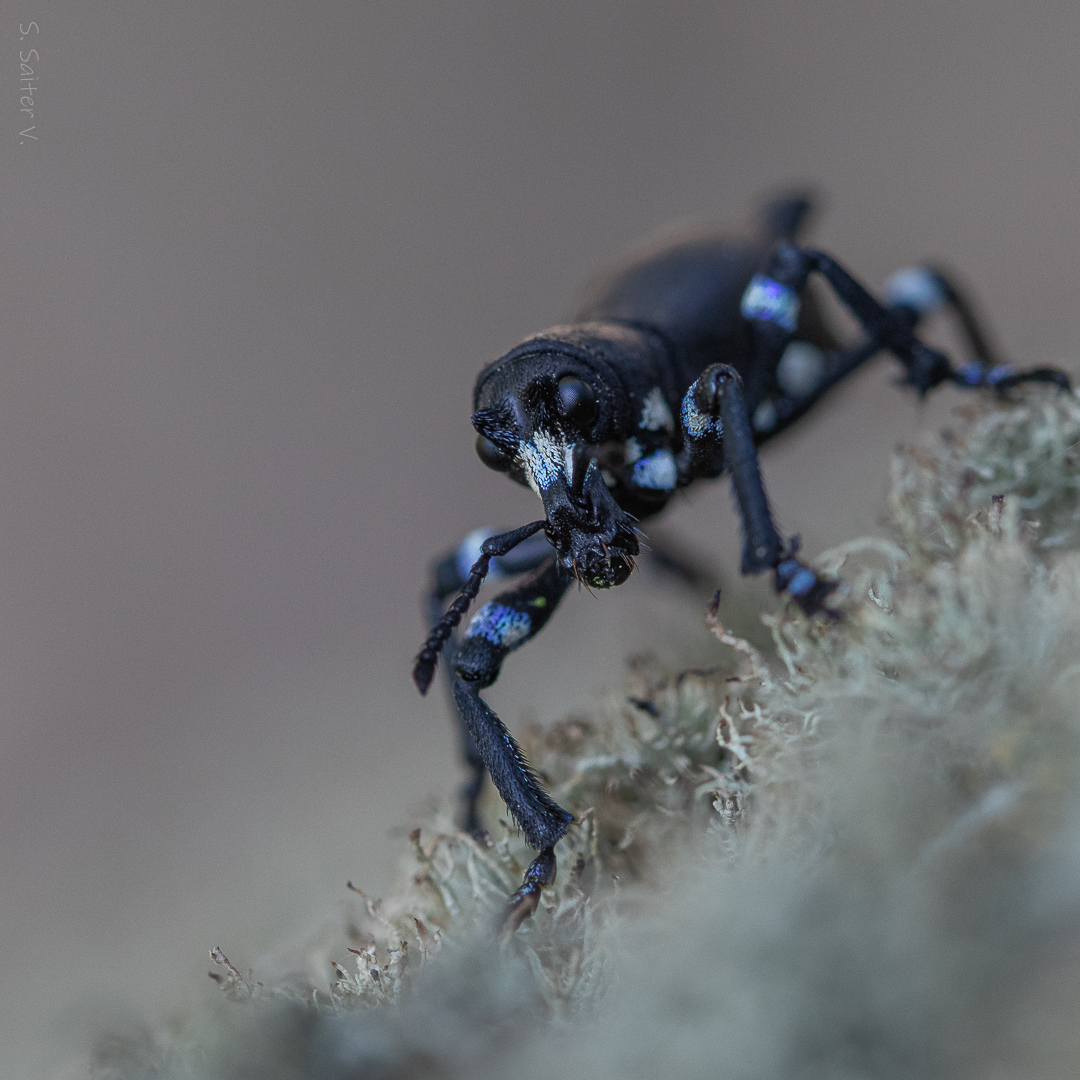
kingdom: Animalia
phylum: Arthropoda
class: Insecta
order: Coleoptera
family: Curculionidae
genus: Aegorhinus
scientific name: Aegorhinus
